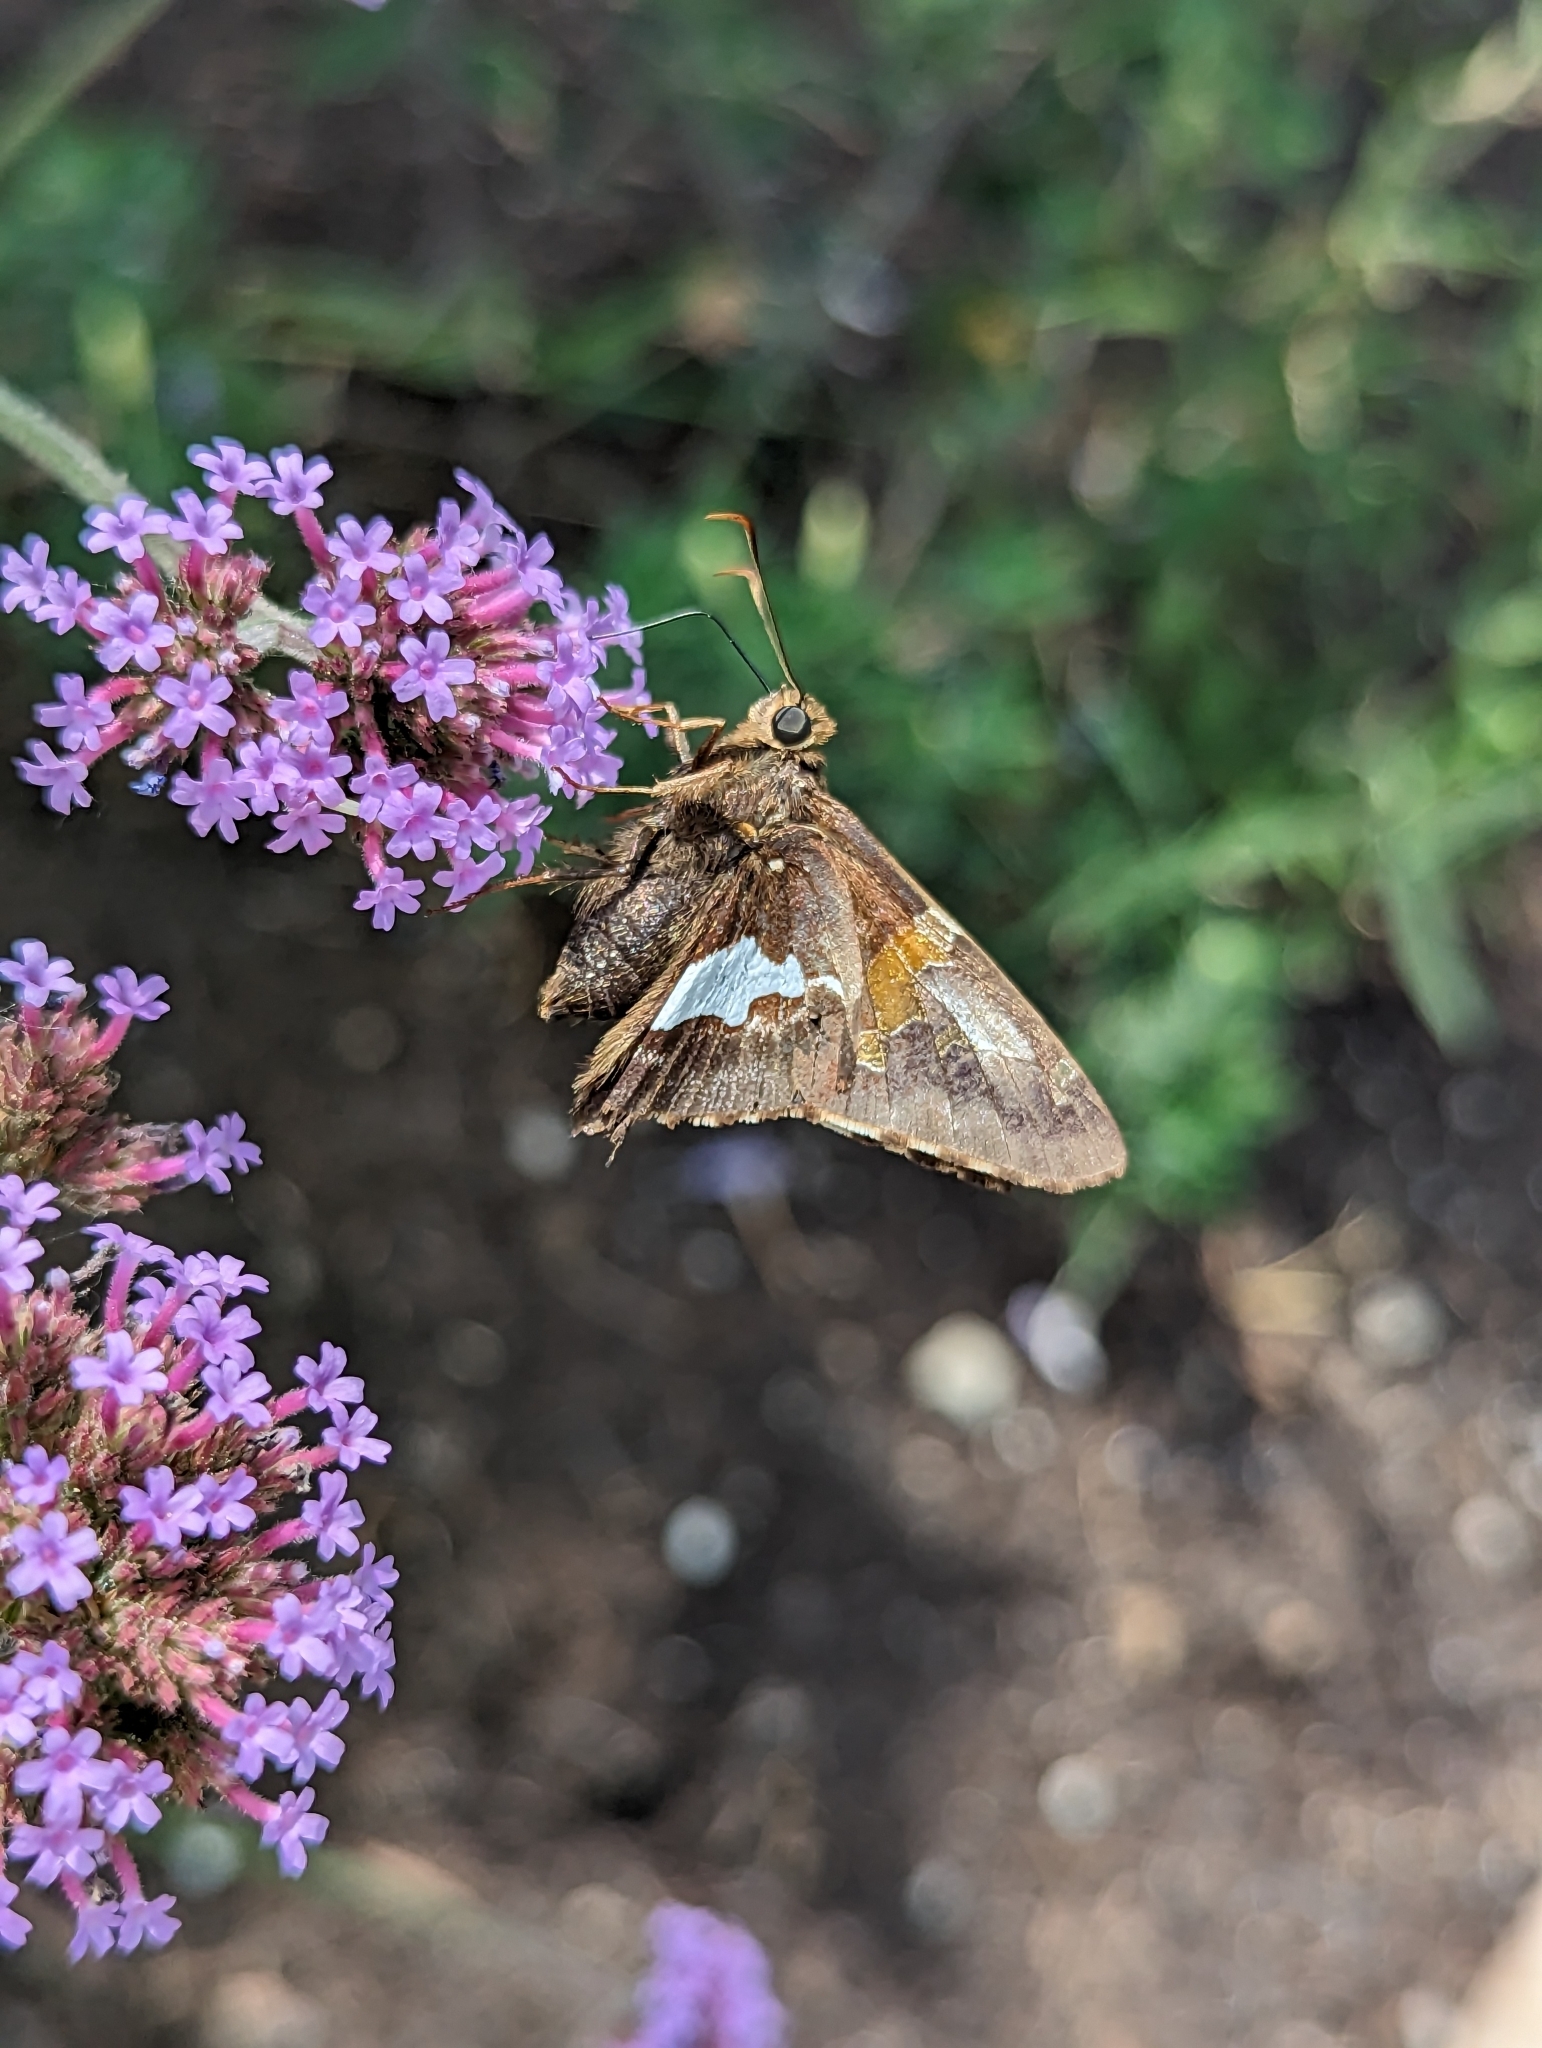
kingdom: Animalia
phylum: Arthropoda
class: Insecta
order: Lepidoptera
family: Hesperiidae
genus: Epargyreus
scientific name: Epargyreus clarus
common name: Silver-spotted skipper
